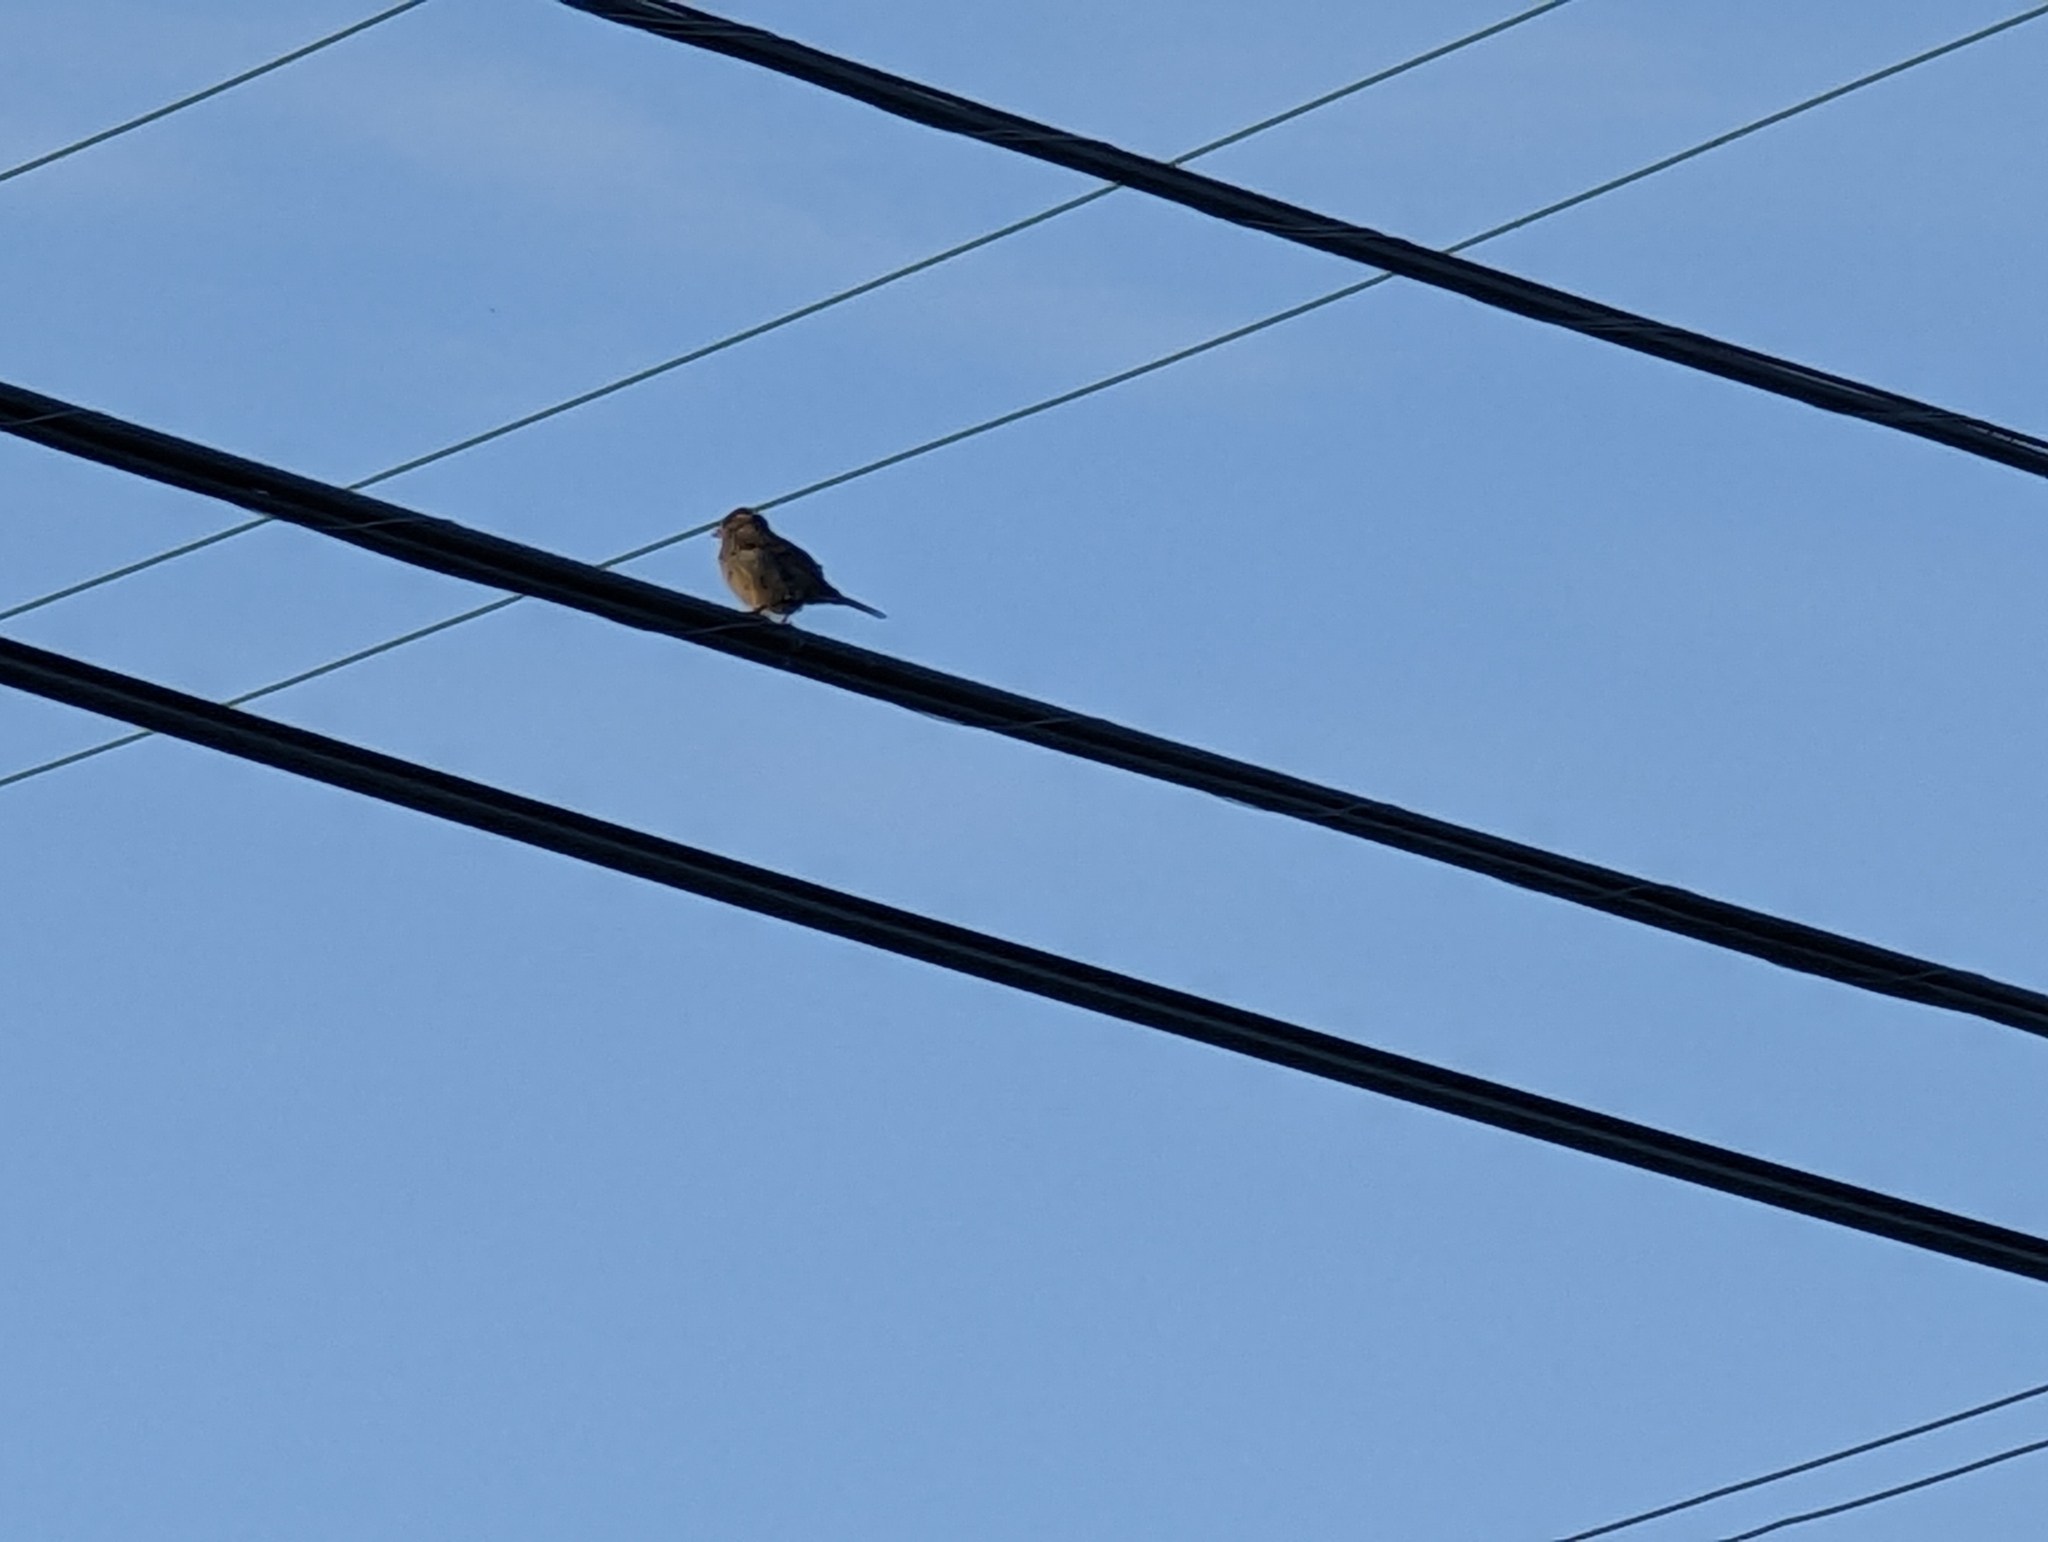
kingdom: Animalia
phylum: Chordata
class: Aves
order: Passeriformes
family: Passeridae
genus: Passer
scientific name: Passer domesticus
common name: House sparrow
